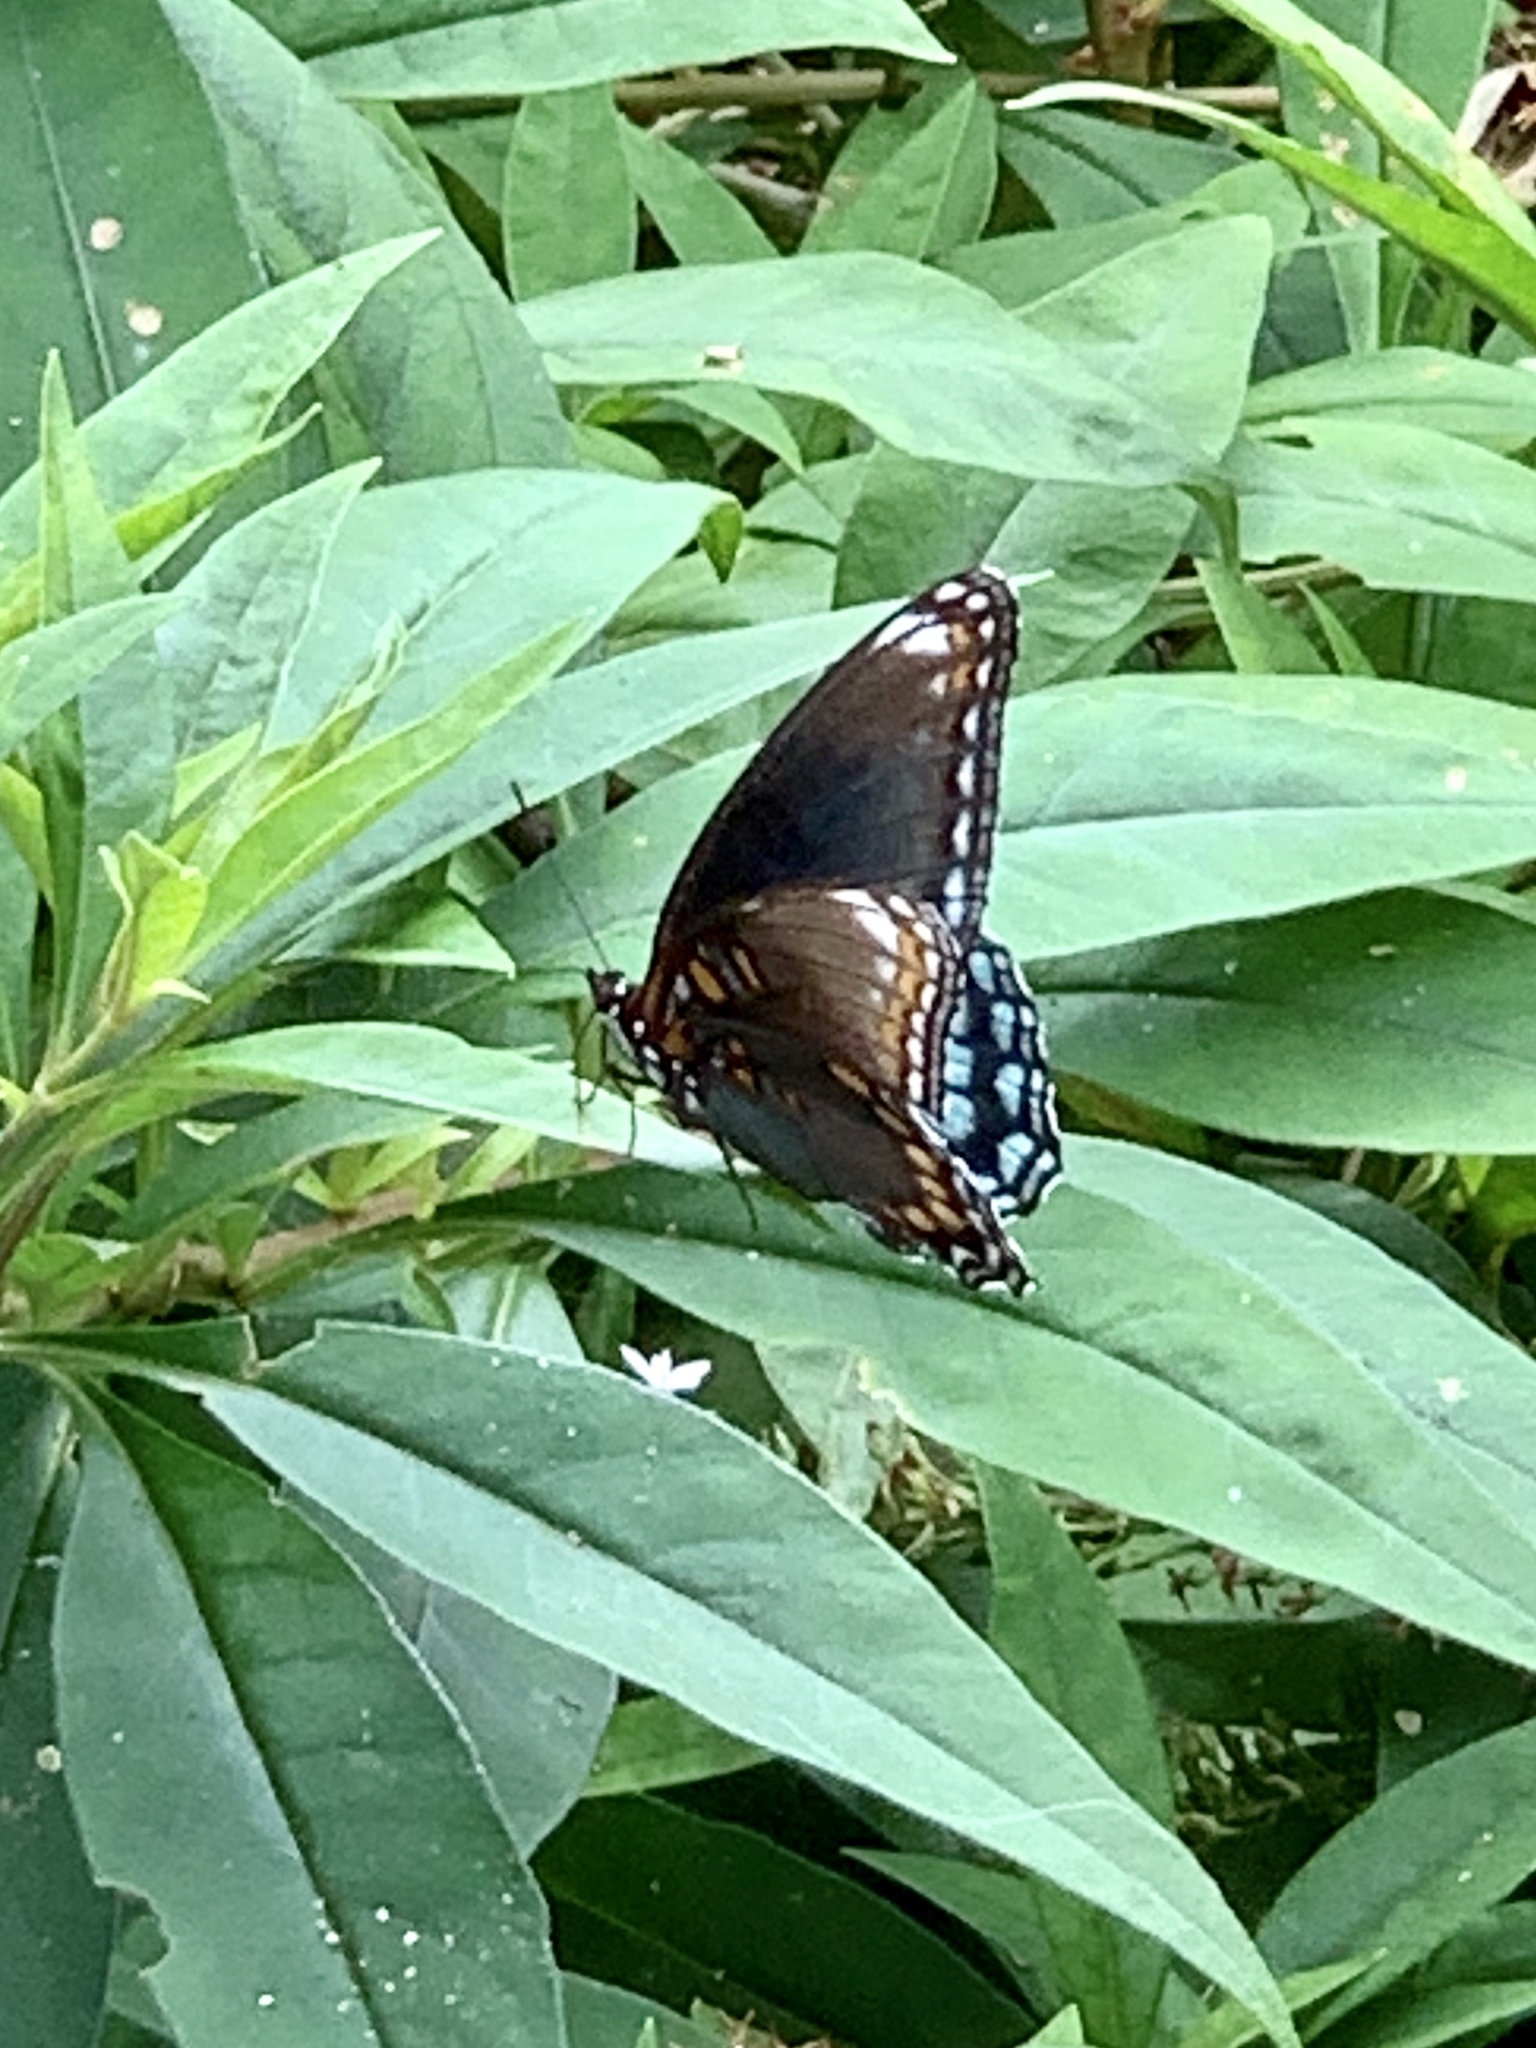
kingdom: Animalia
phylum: Arthropoda
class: Insecta
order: Lepidoptera
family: Nymphalidae
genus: Limenitis
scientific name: Limenitis astyanax
